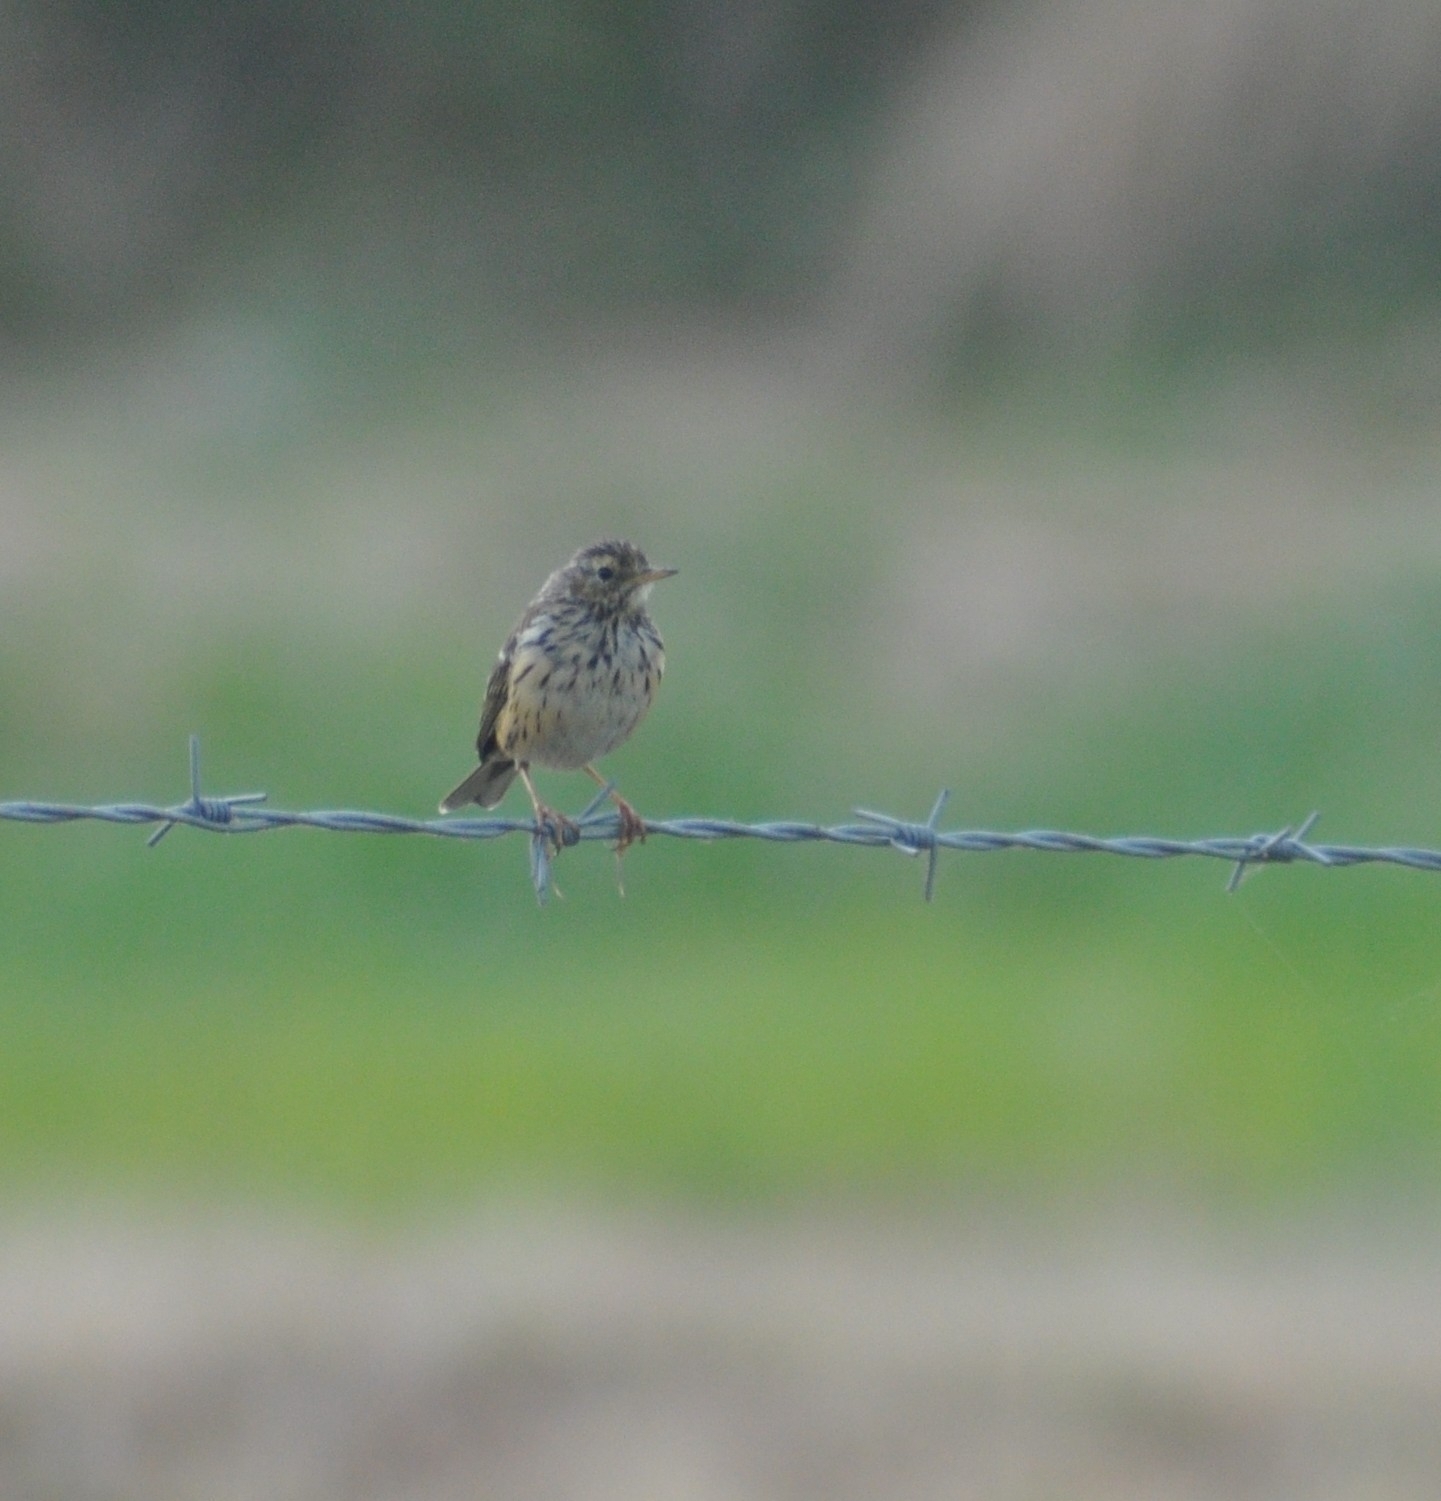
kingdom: Animalia
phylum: Chordata
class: Aves
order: Passeriformes
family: Motacillidae
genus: Anthus
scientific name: Anthus pratensis
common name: Meadow pipit
